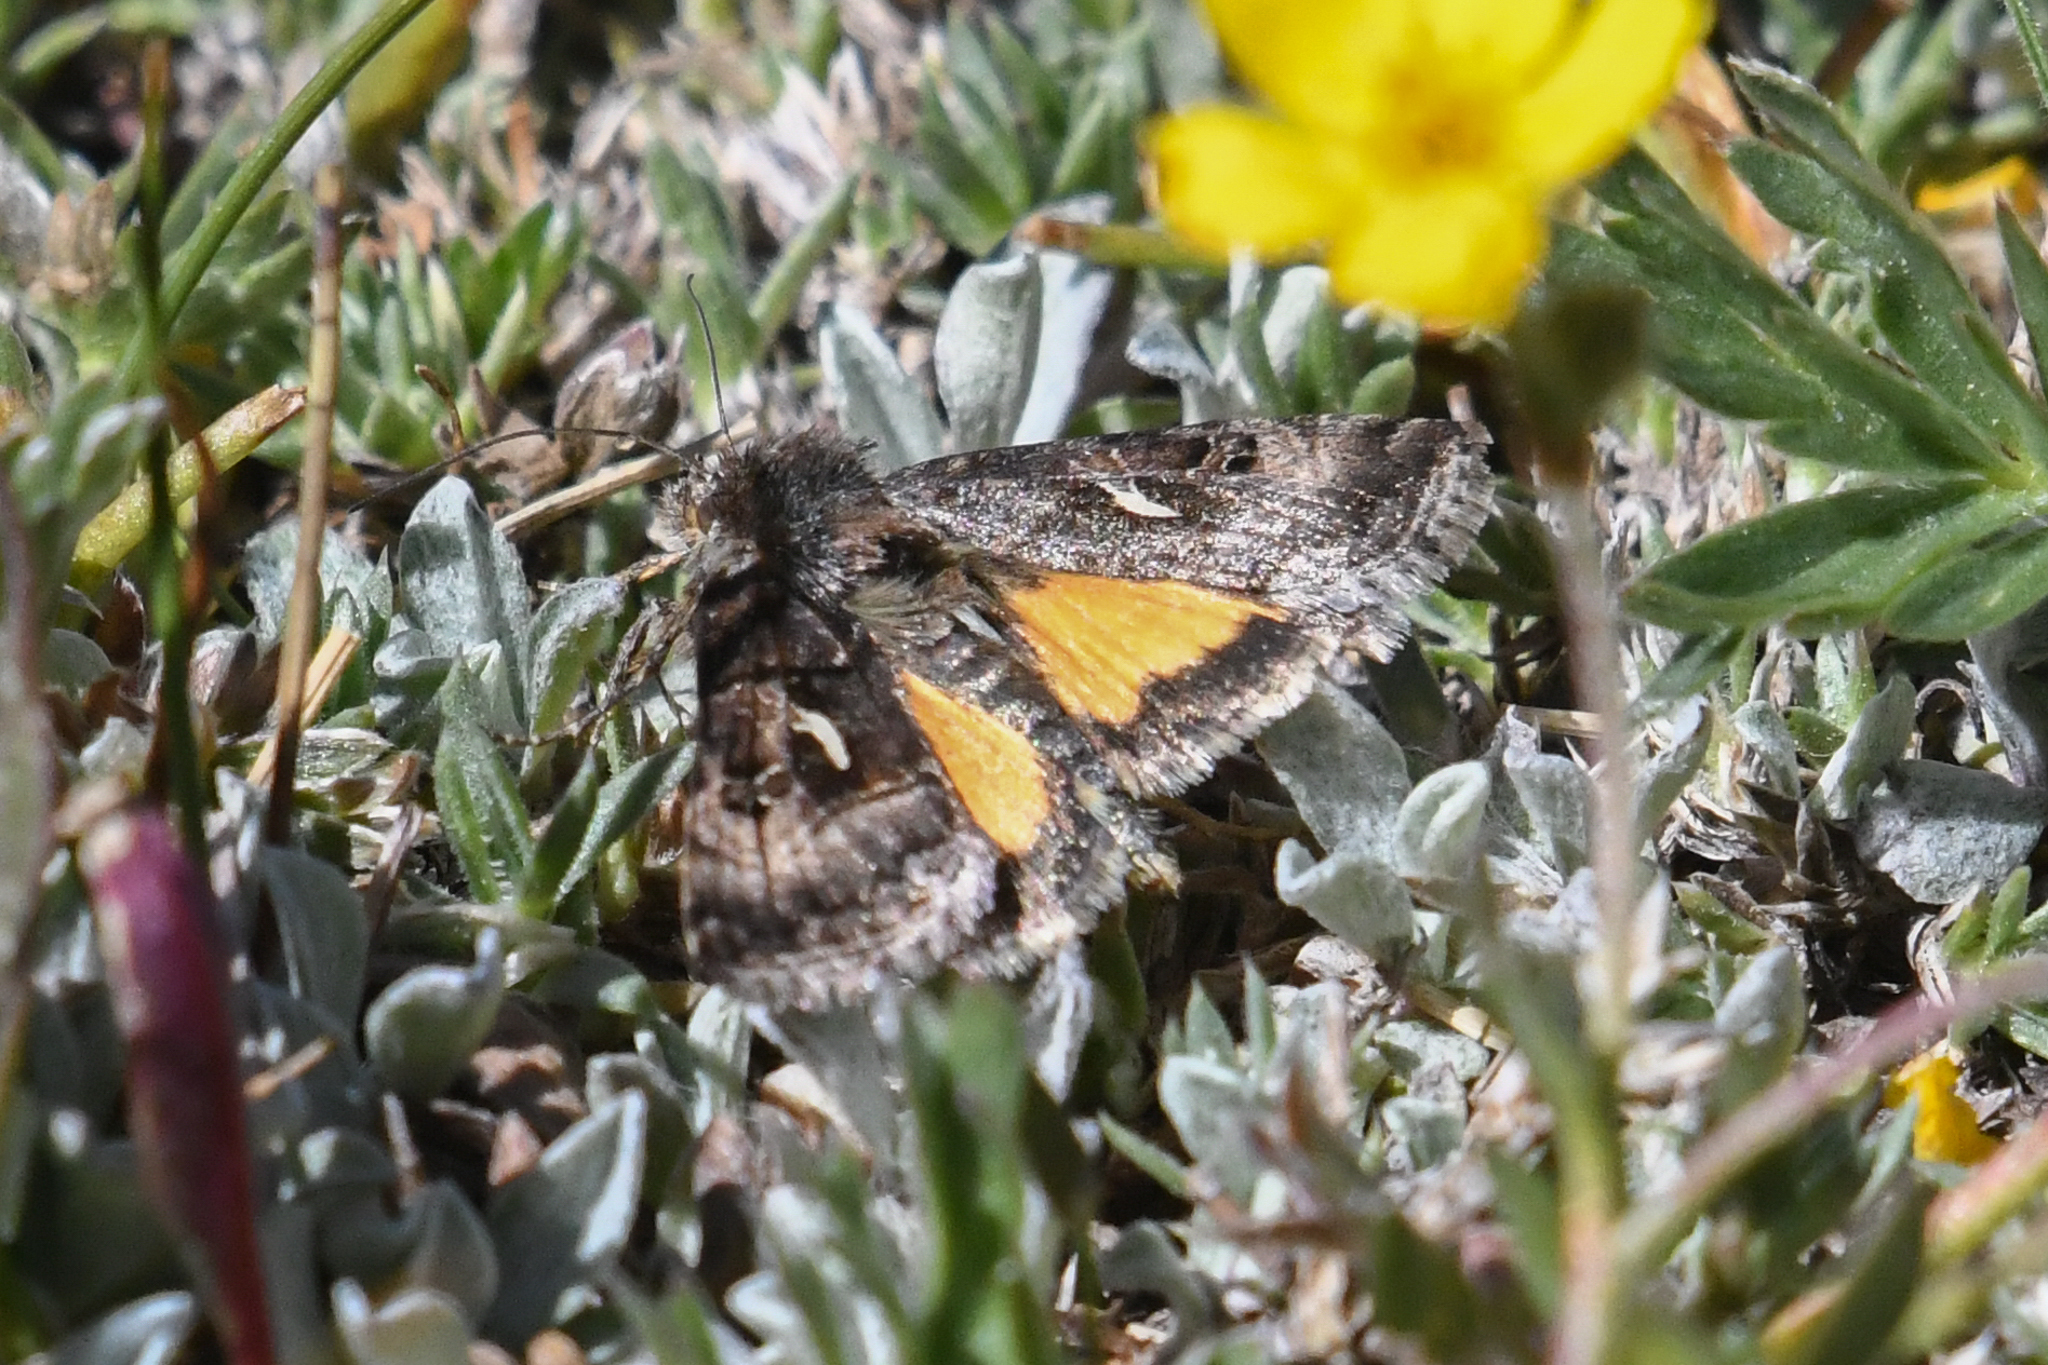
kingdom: Animalia
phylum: Arthropoda
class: Insecta
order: Lepidoptera
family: Noctuidae
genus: Syngrapha
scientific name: Syngrapha alticola
